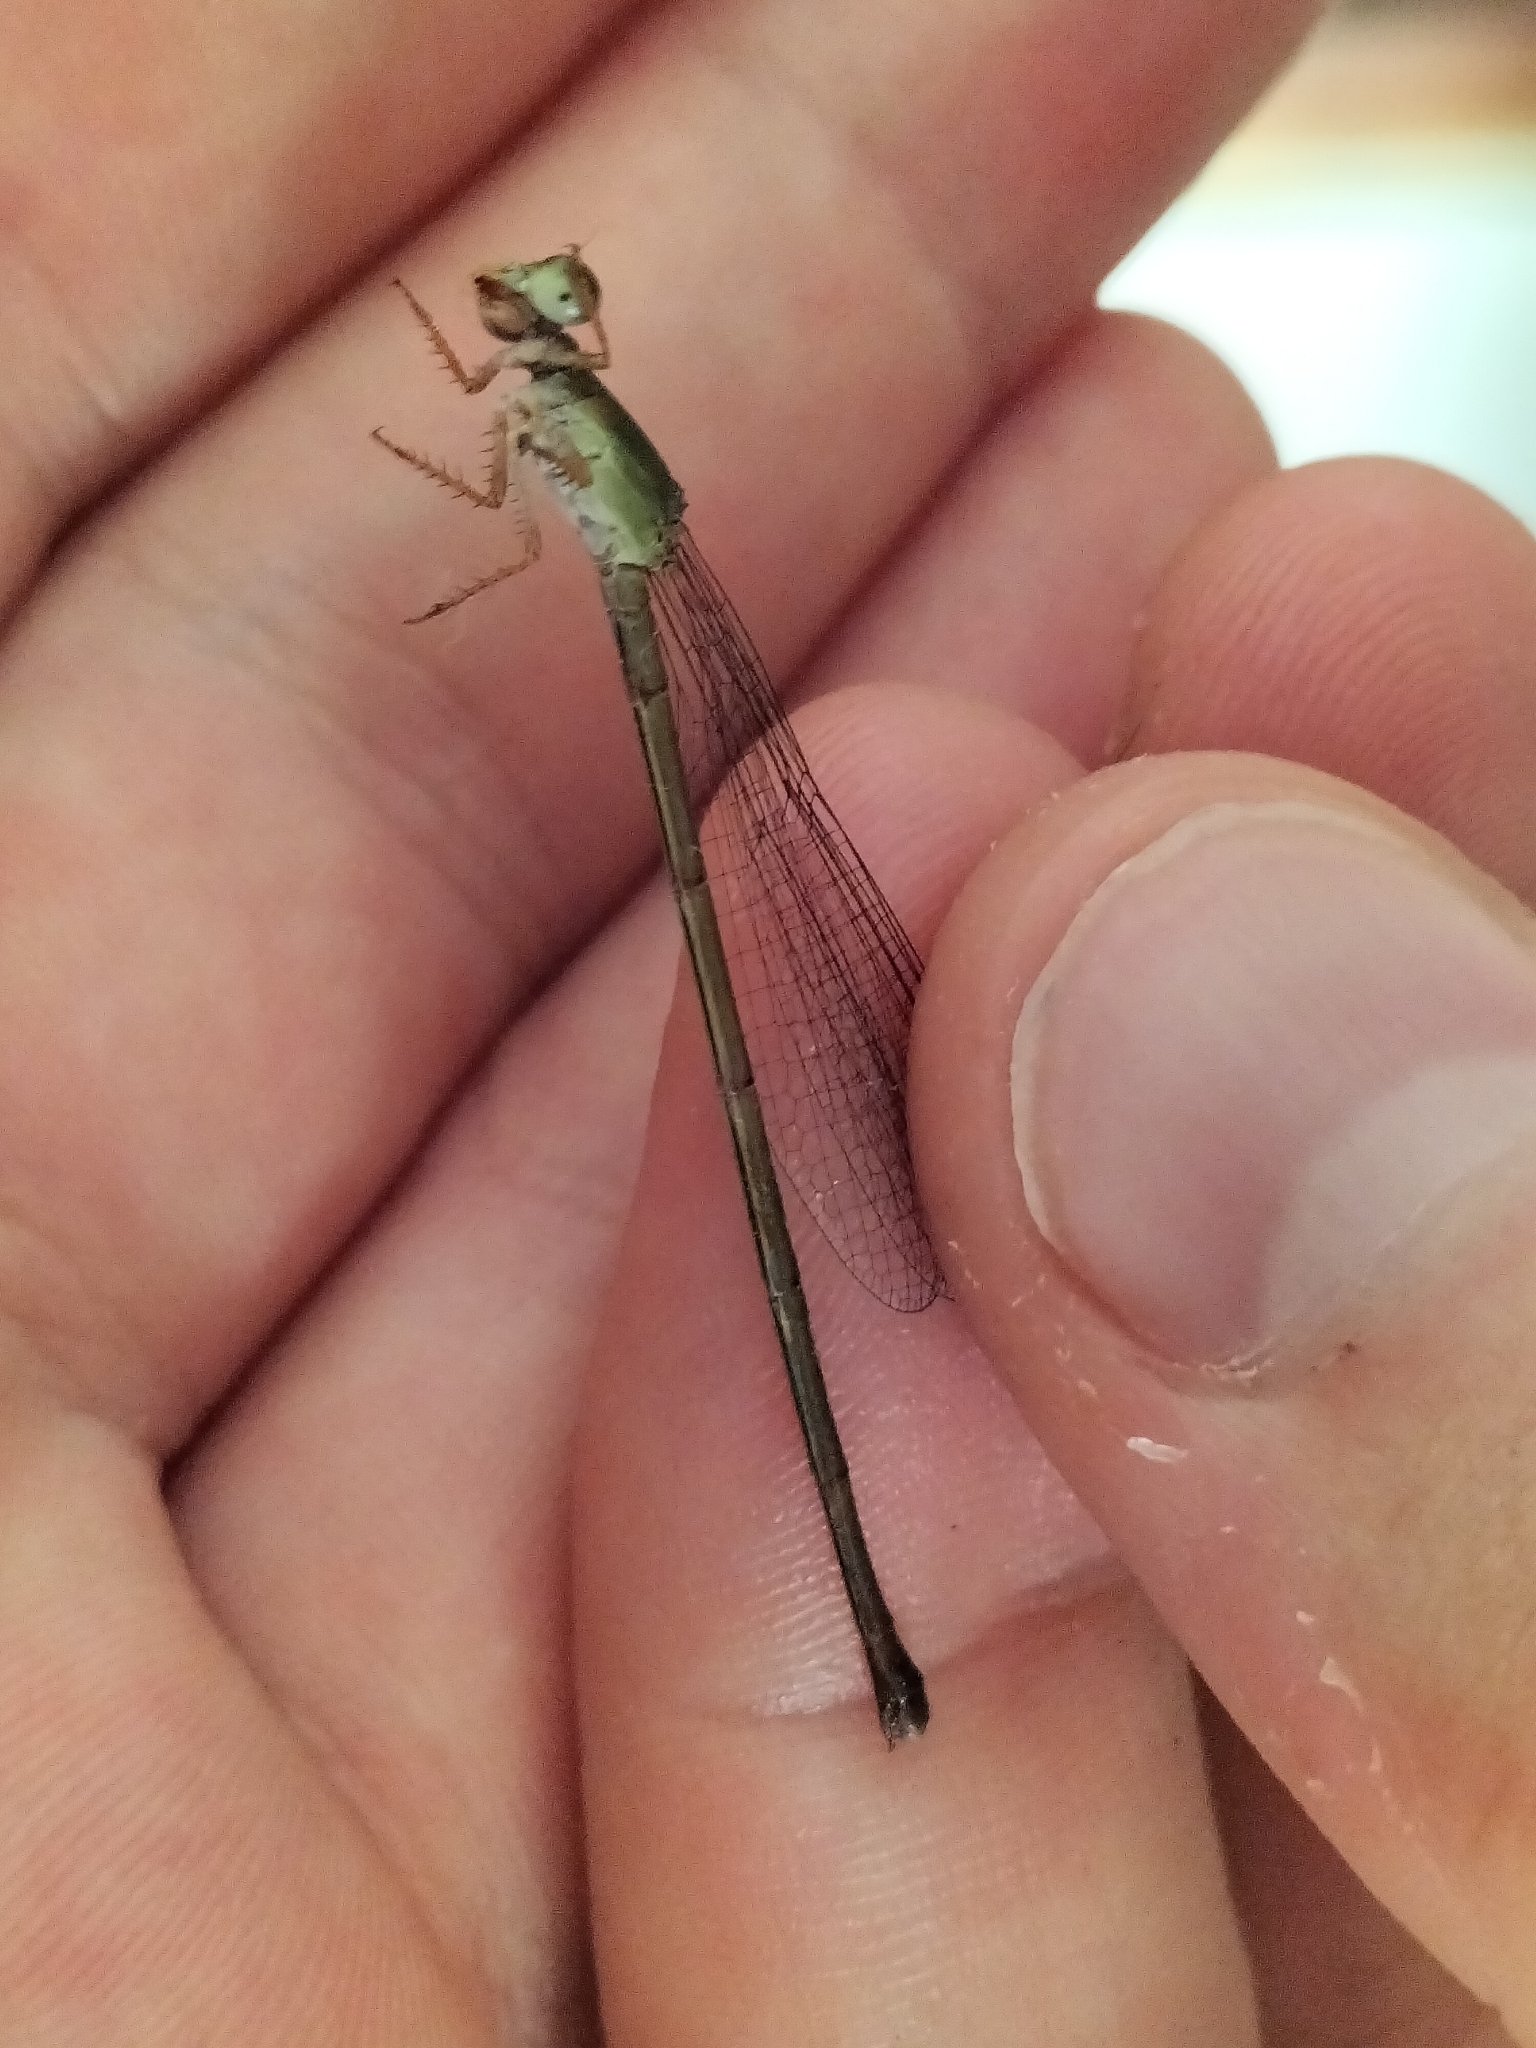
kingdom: Animalia
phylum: Arthropoda
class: Insecta
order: Odonata
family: Coenagrionidae
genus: Ceriagrion
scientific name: Ceriagrion aeruginosum
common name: Redtail
